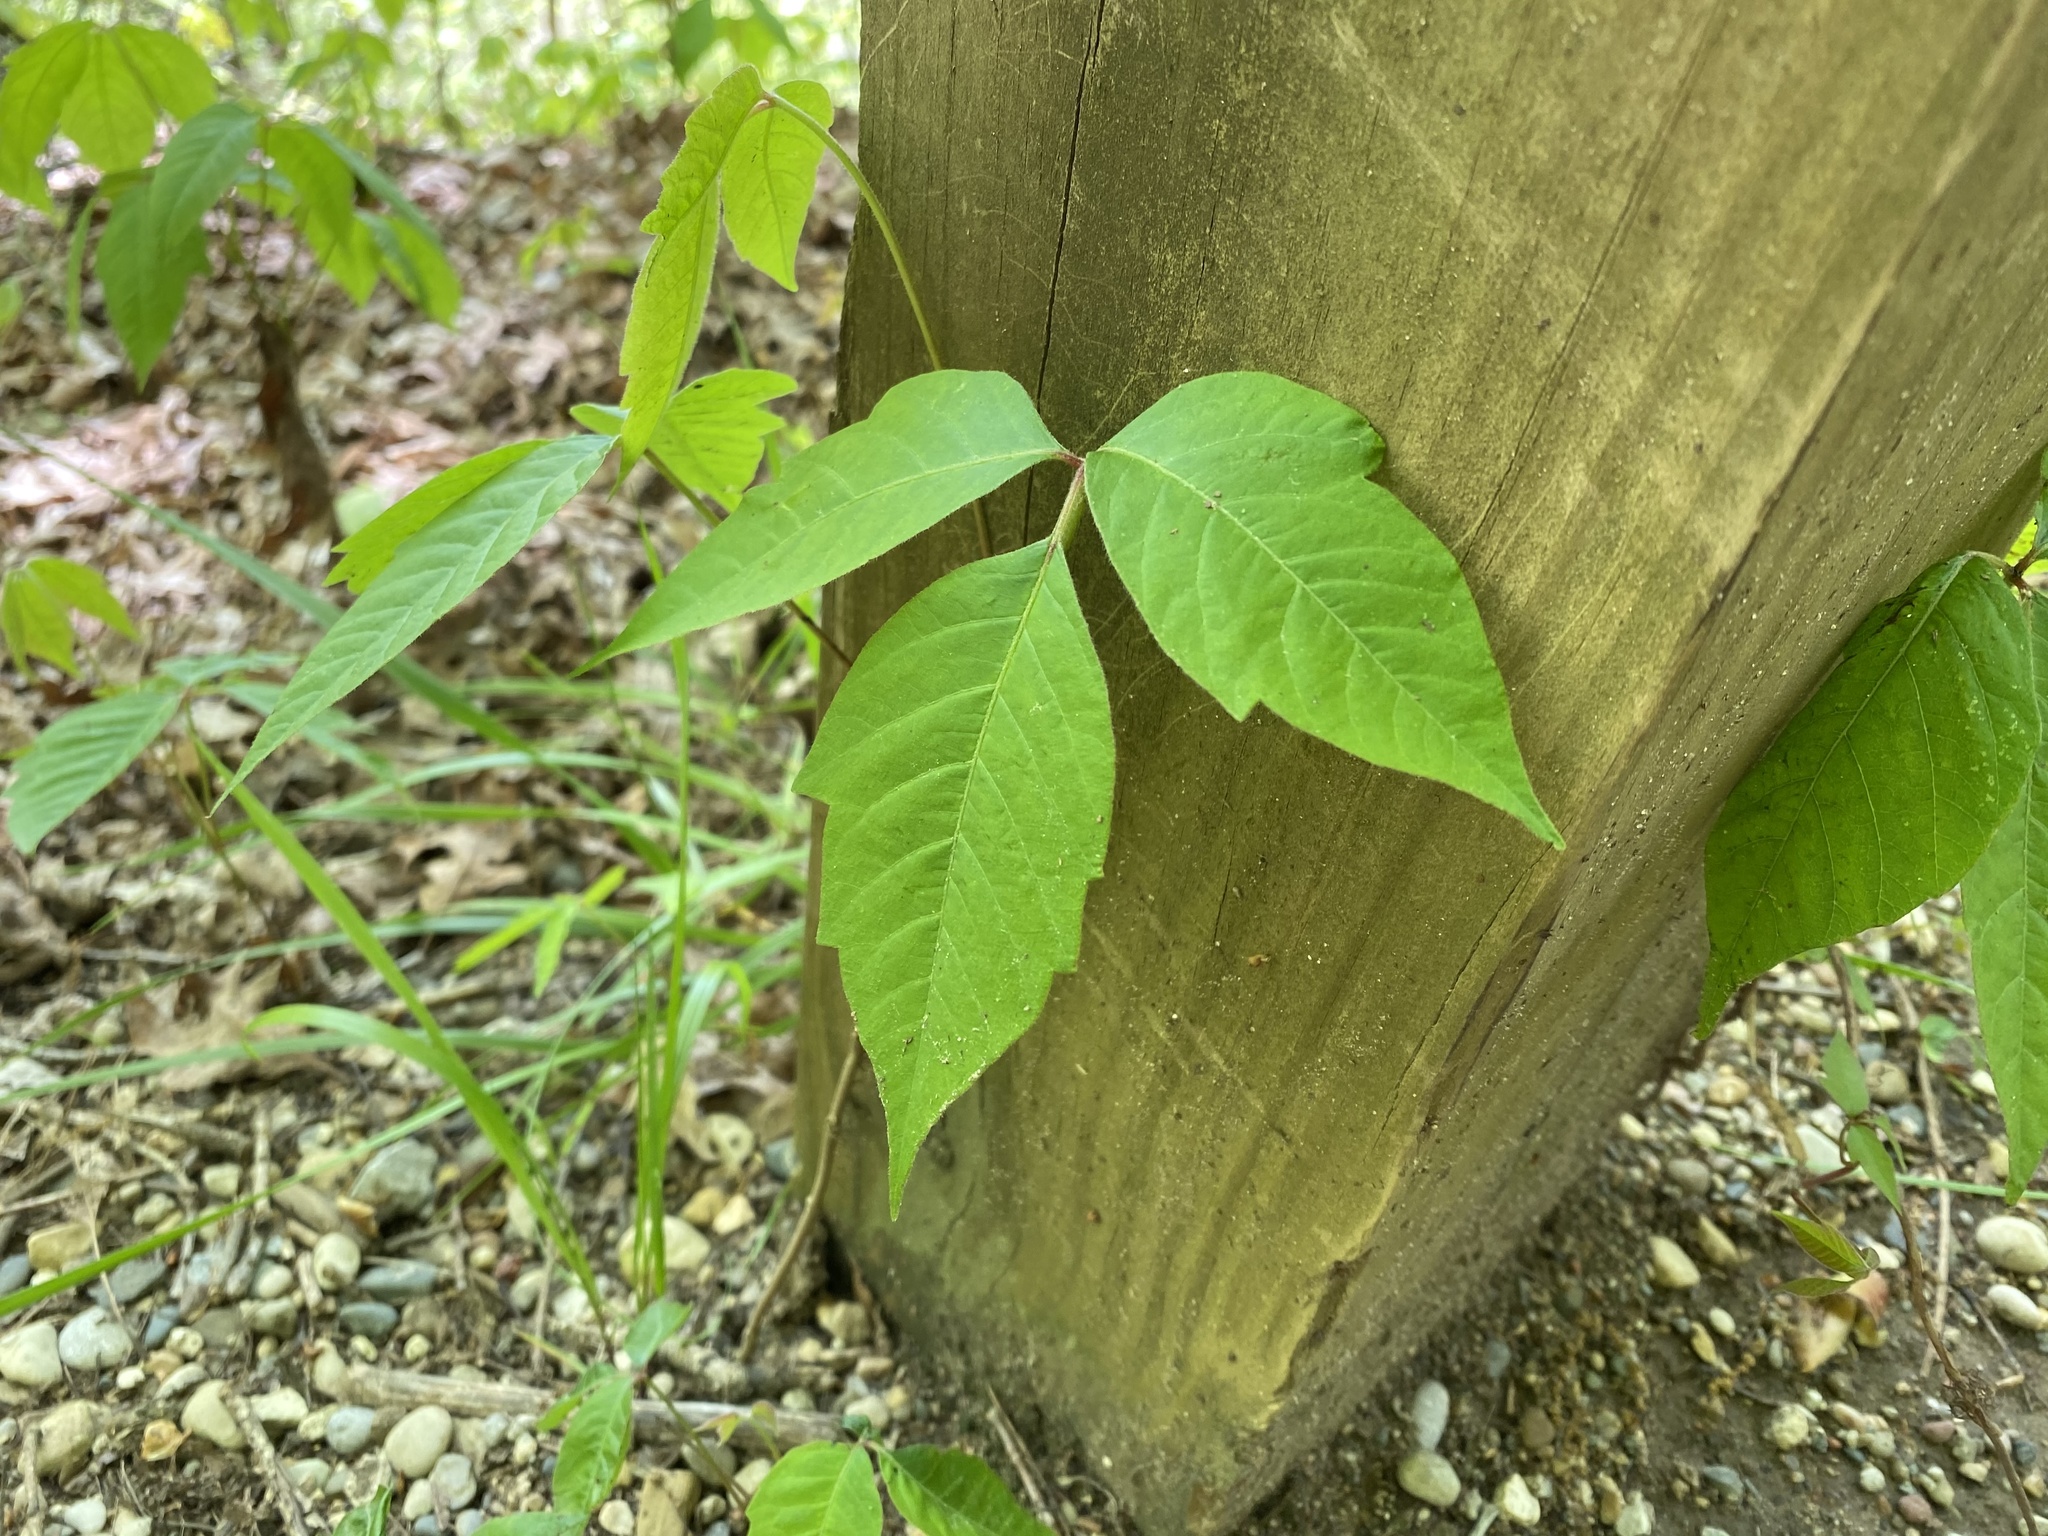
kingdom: Plantae
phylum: Tracheophyta
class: Magnoliopsida
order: Sapindales
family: Anacardiaceae
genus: Toxicodendron
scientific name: Toxicodendron radicans
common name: Poison ivy
